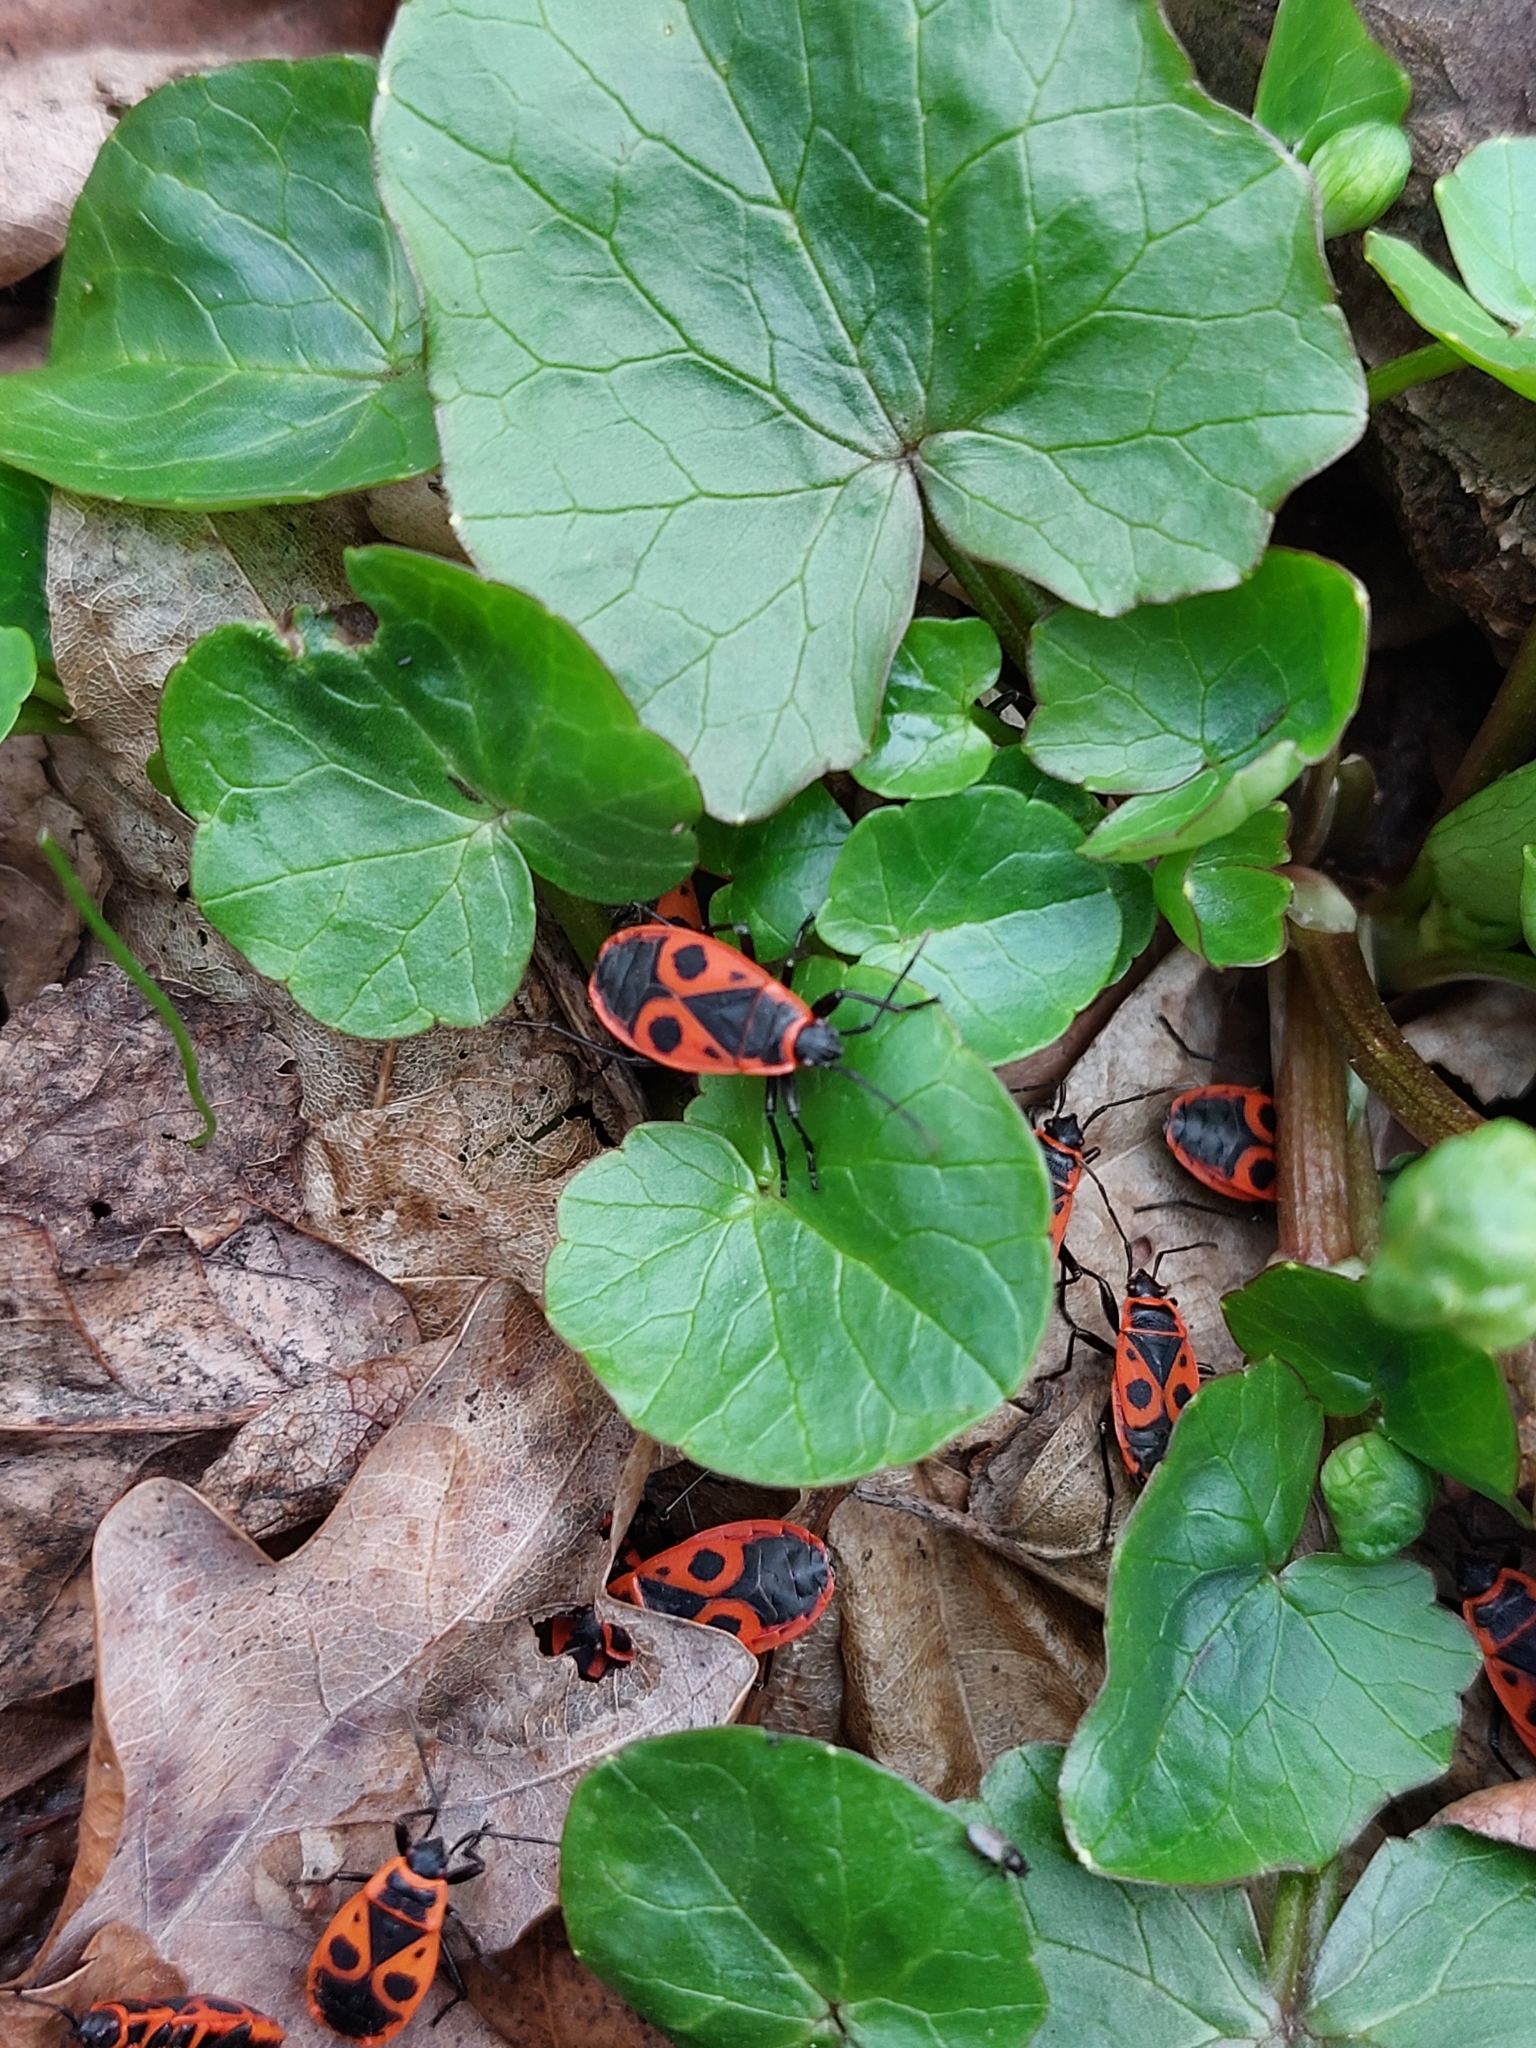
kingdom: Animalia
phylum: Arthropoda
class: Insecta
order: Hemiptera
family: Pyrrhocoridae
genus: Pyrrhocoris
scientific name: Pyrrhocoris apterus
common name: Firebug
